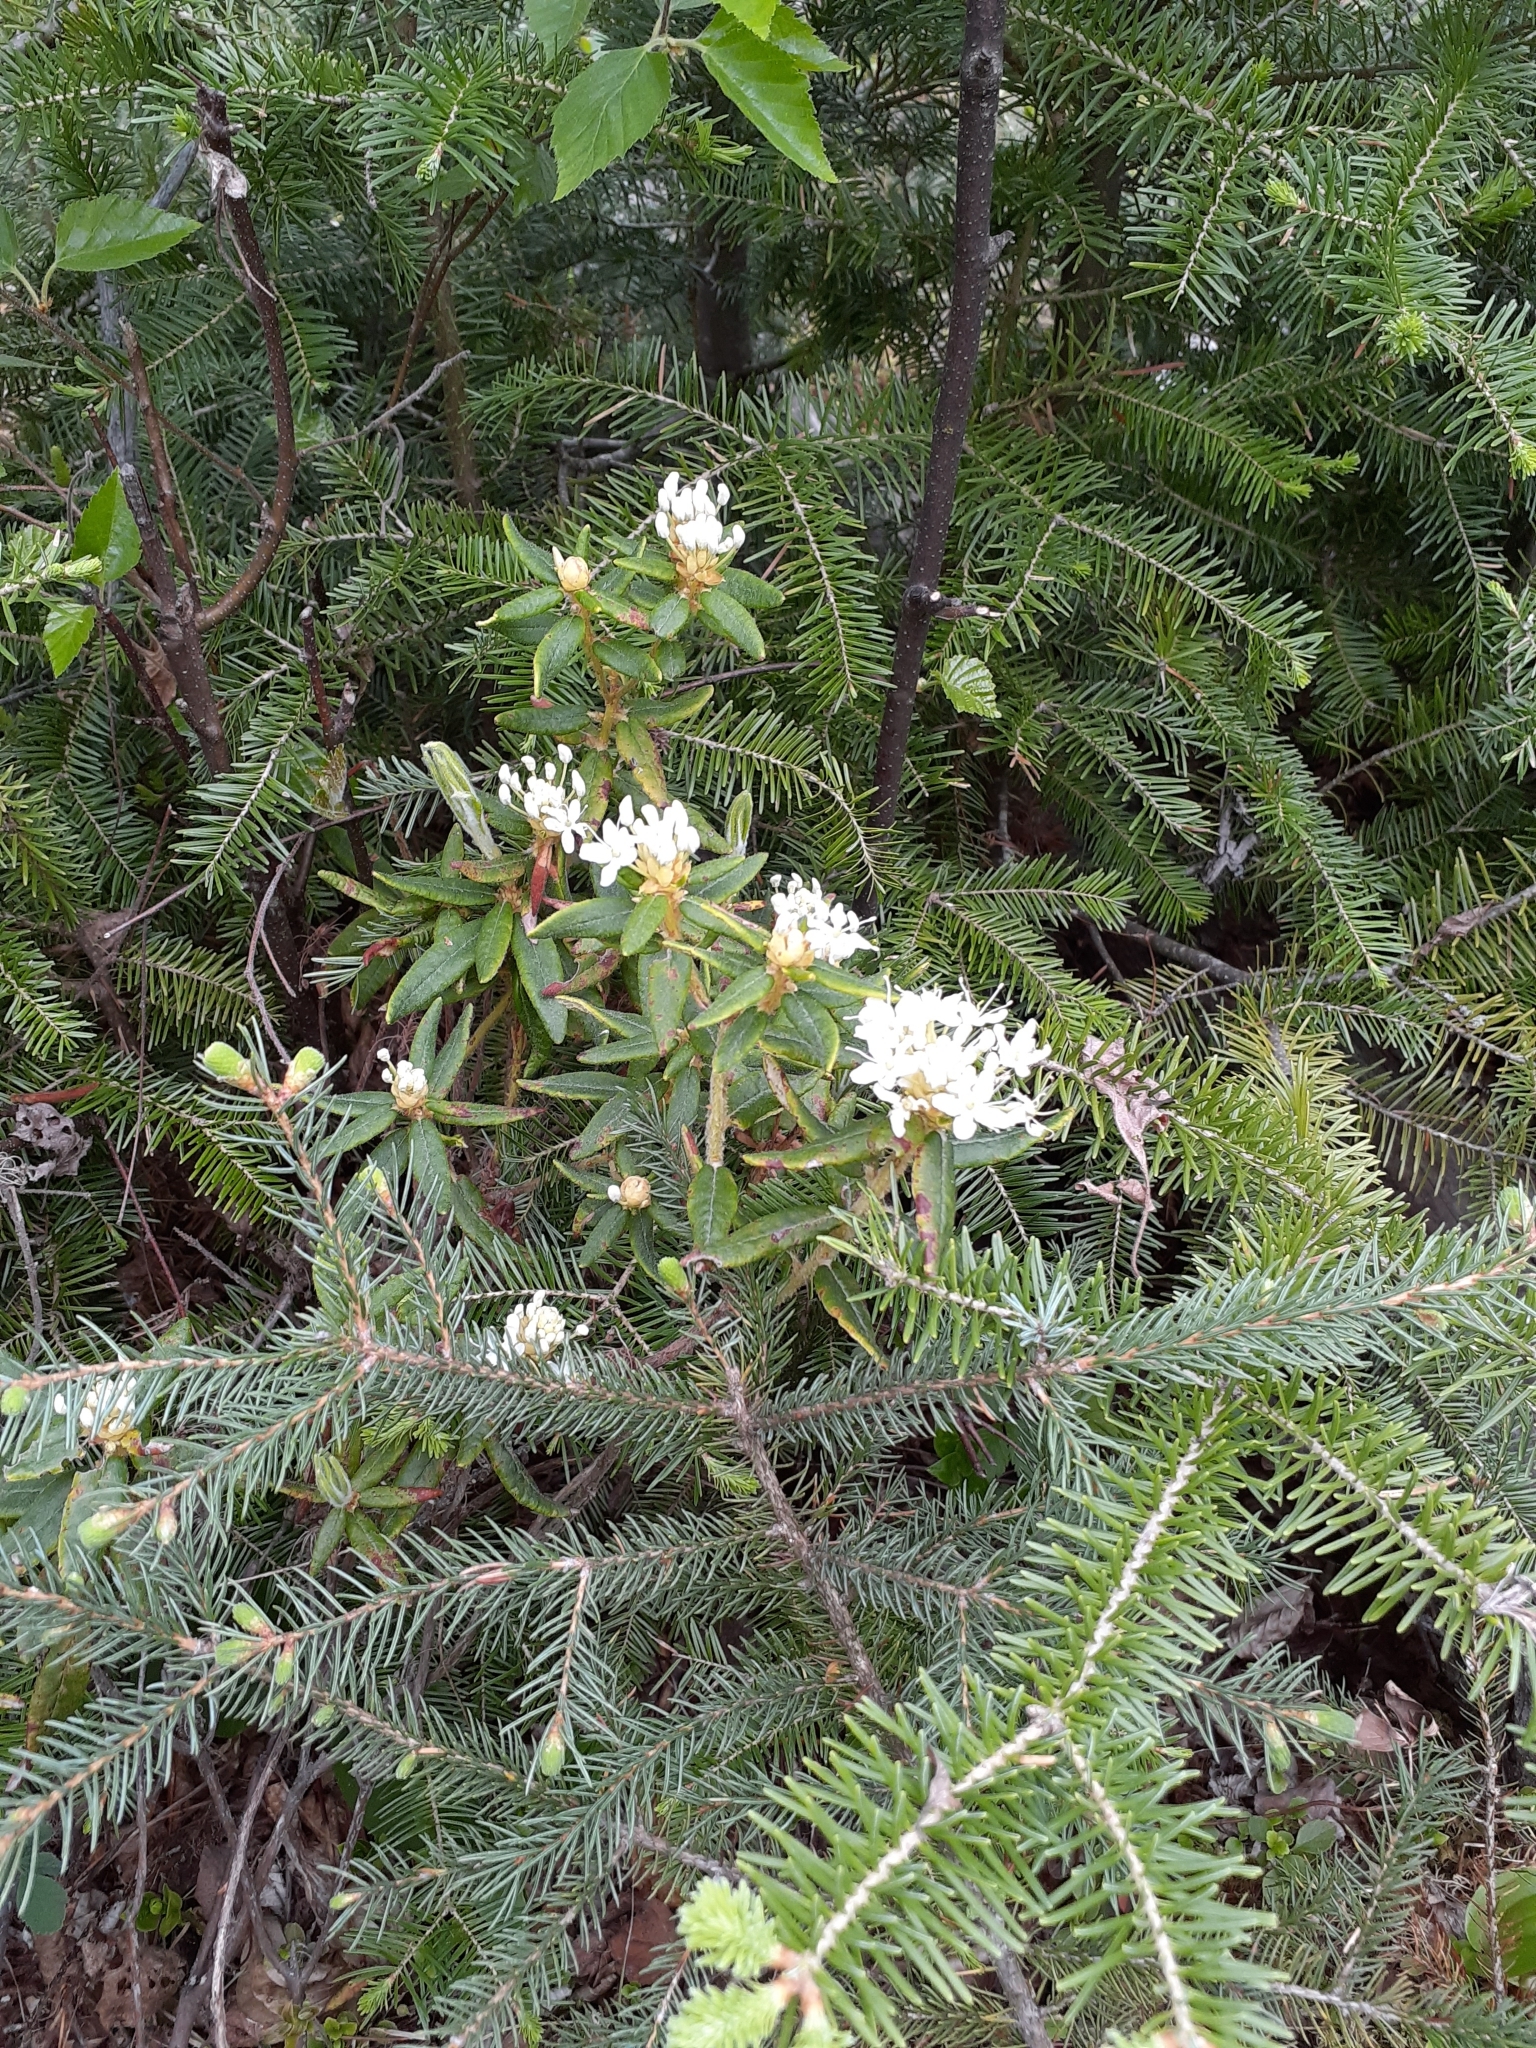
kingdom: Plantae
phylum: Tracheophyta
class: Magnoliopsida
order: Ericales
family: Ericaceae
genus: Rhododendron
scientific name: Rhododendron groenlandicum
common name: Bog labrador tea
